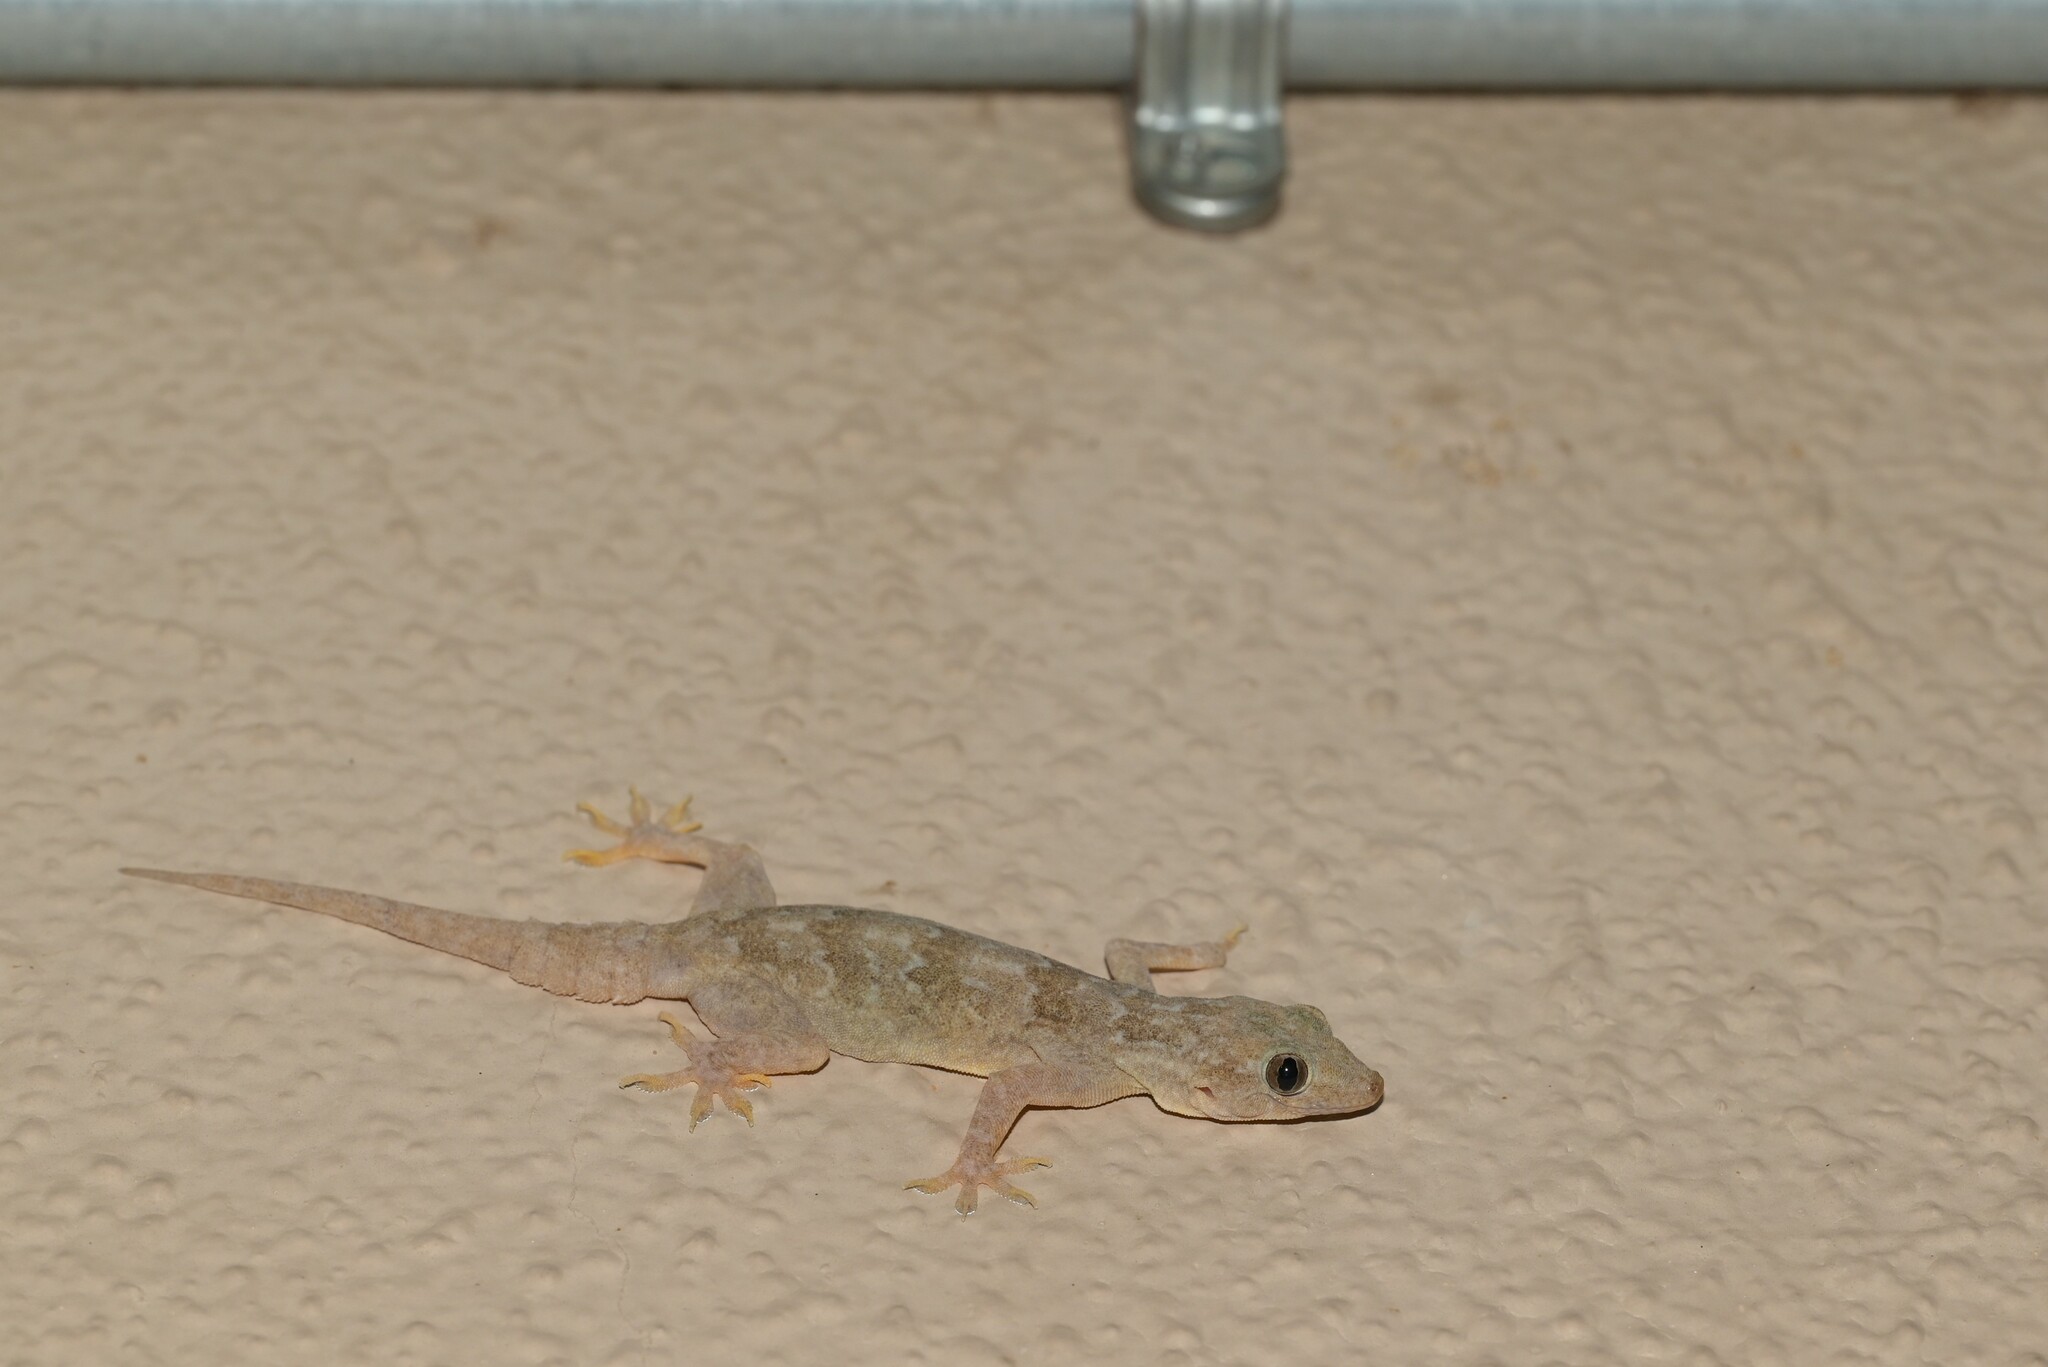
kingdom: Animalia
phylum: Chordata
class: Squamata
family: Gekkonidae
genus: Hemidactylus
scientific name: Hemidactylus flaviviridis
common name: Northern house gecko
